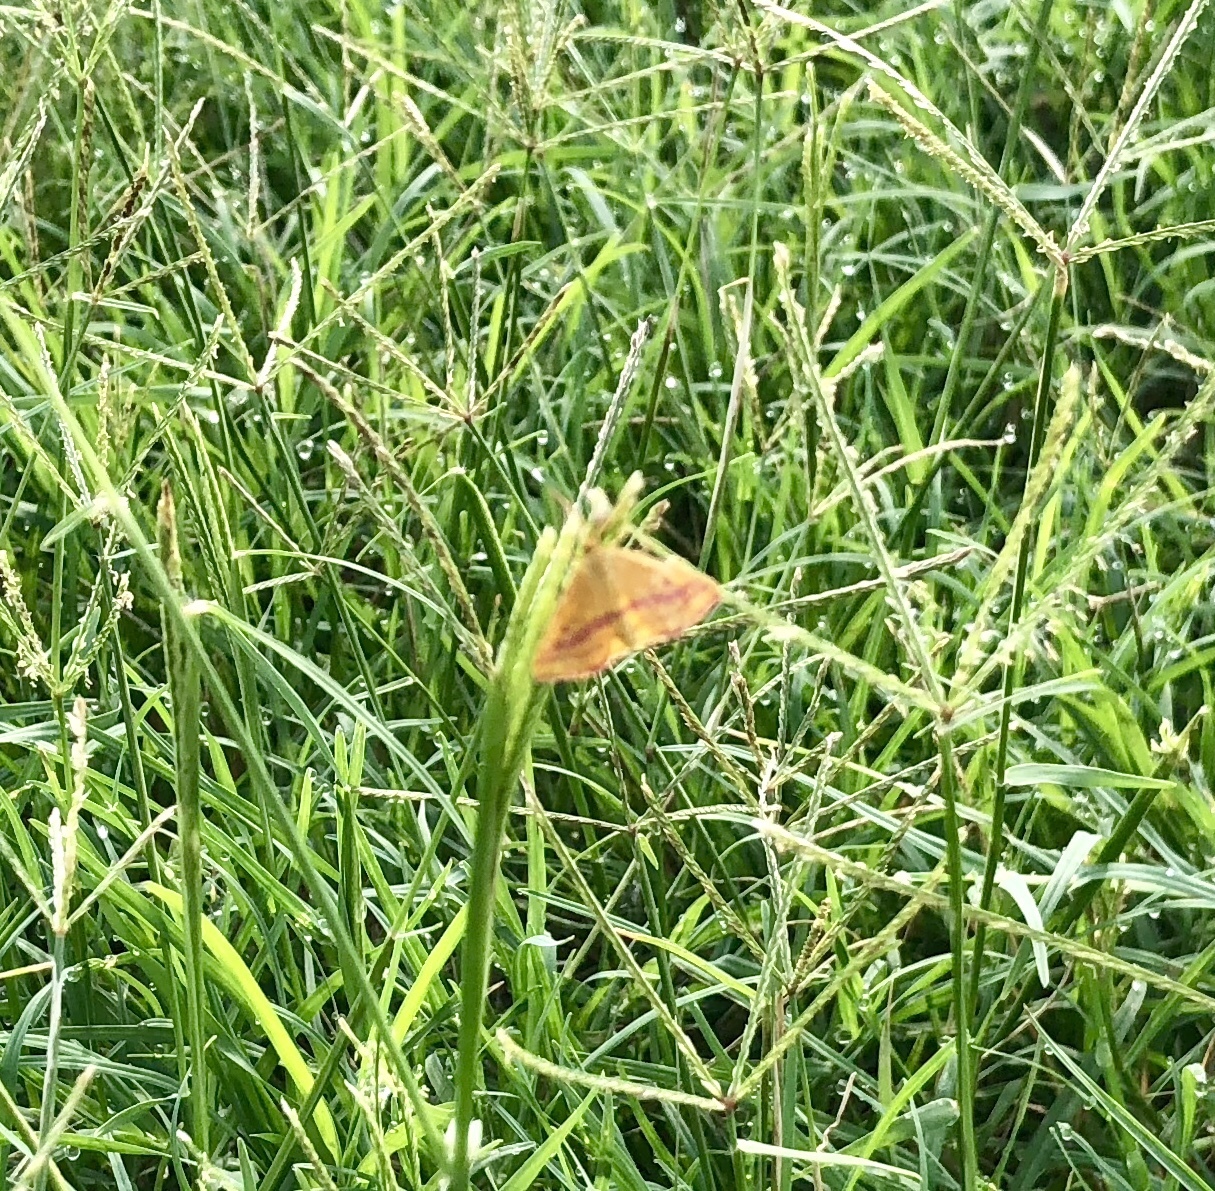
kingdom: Animalia
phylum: Arthropoda
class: Insecta
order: Lepidoptera
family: Geometridae
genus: Haematopis
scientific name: Haematopis grataria
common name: Chickweed geometer
